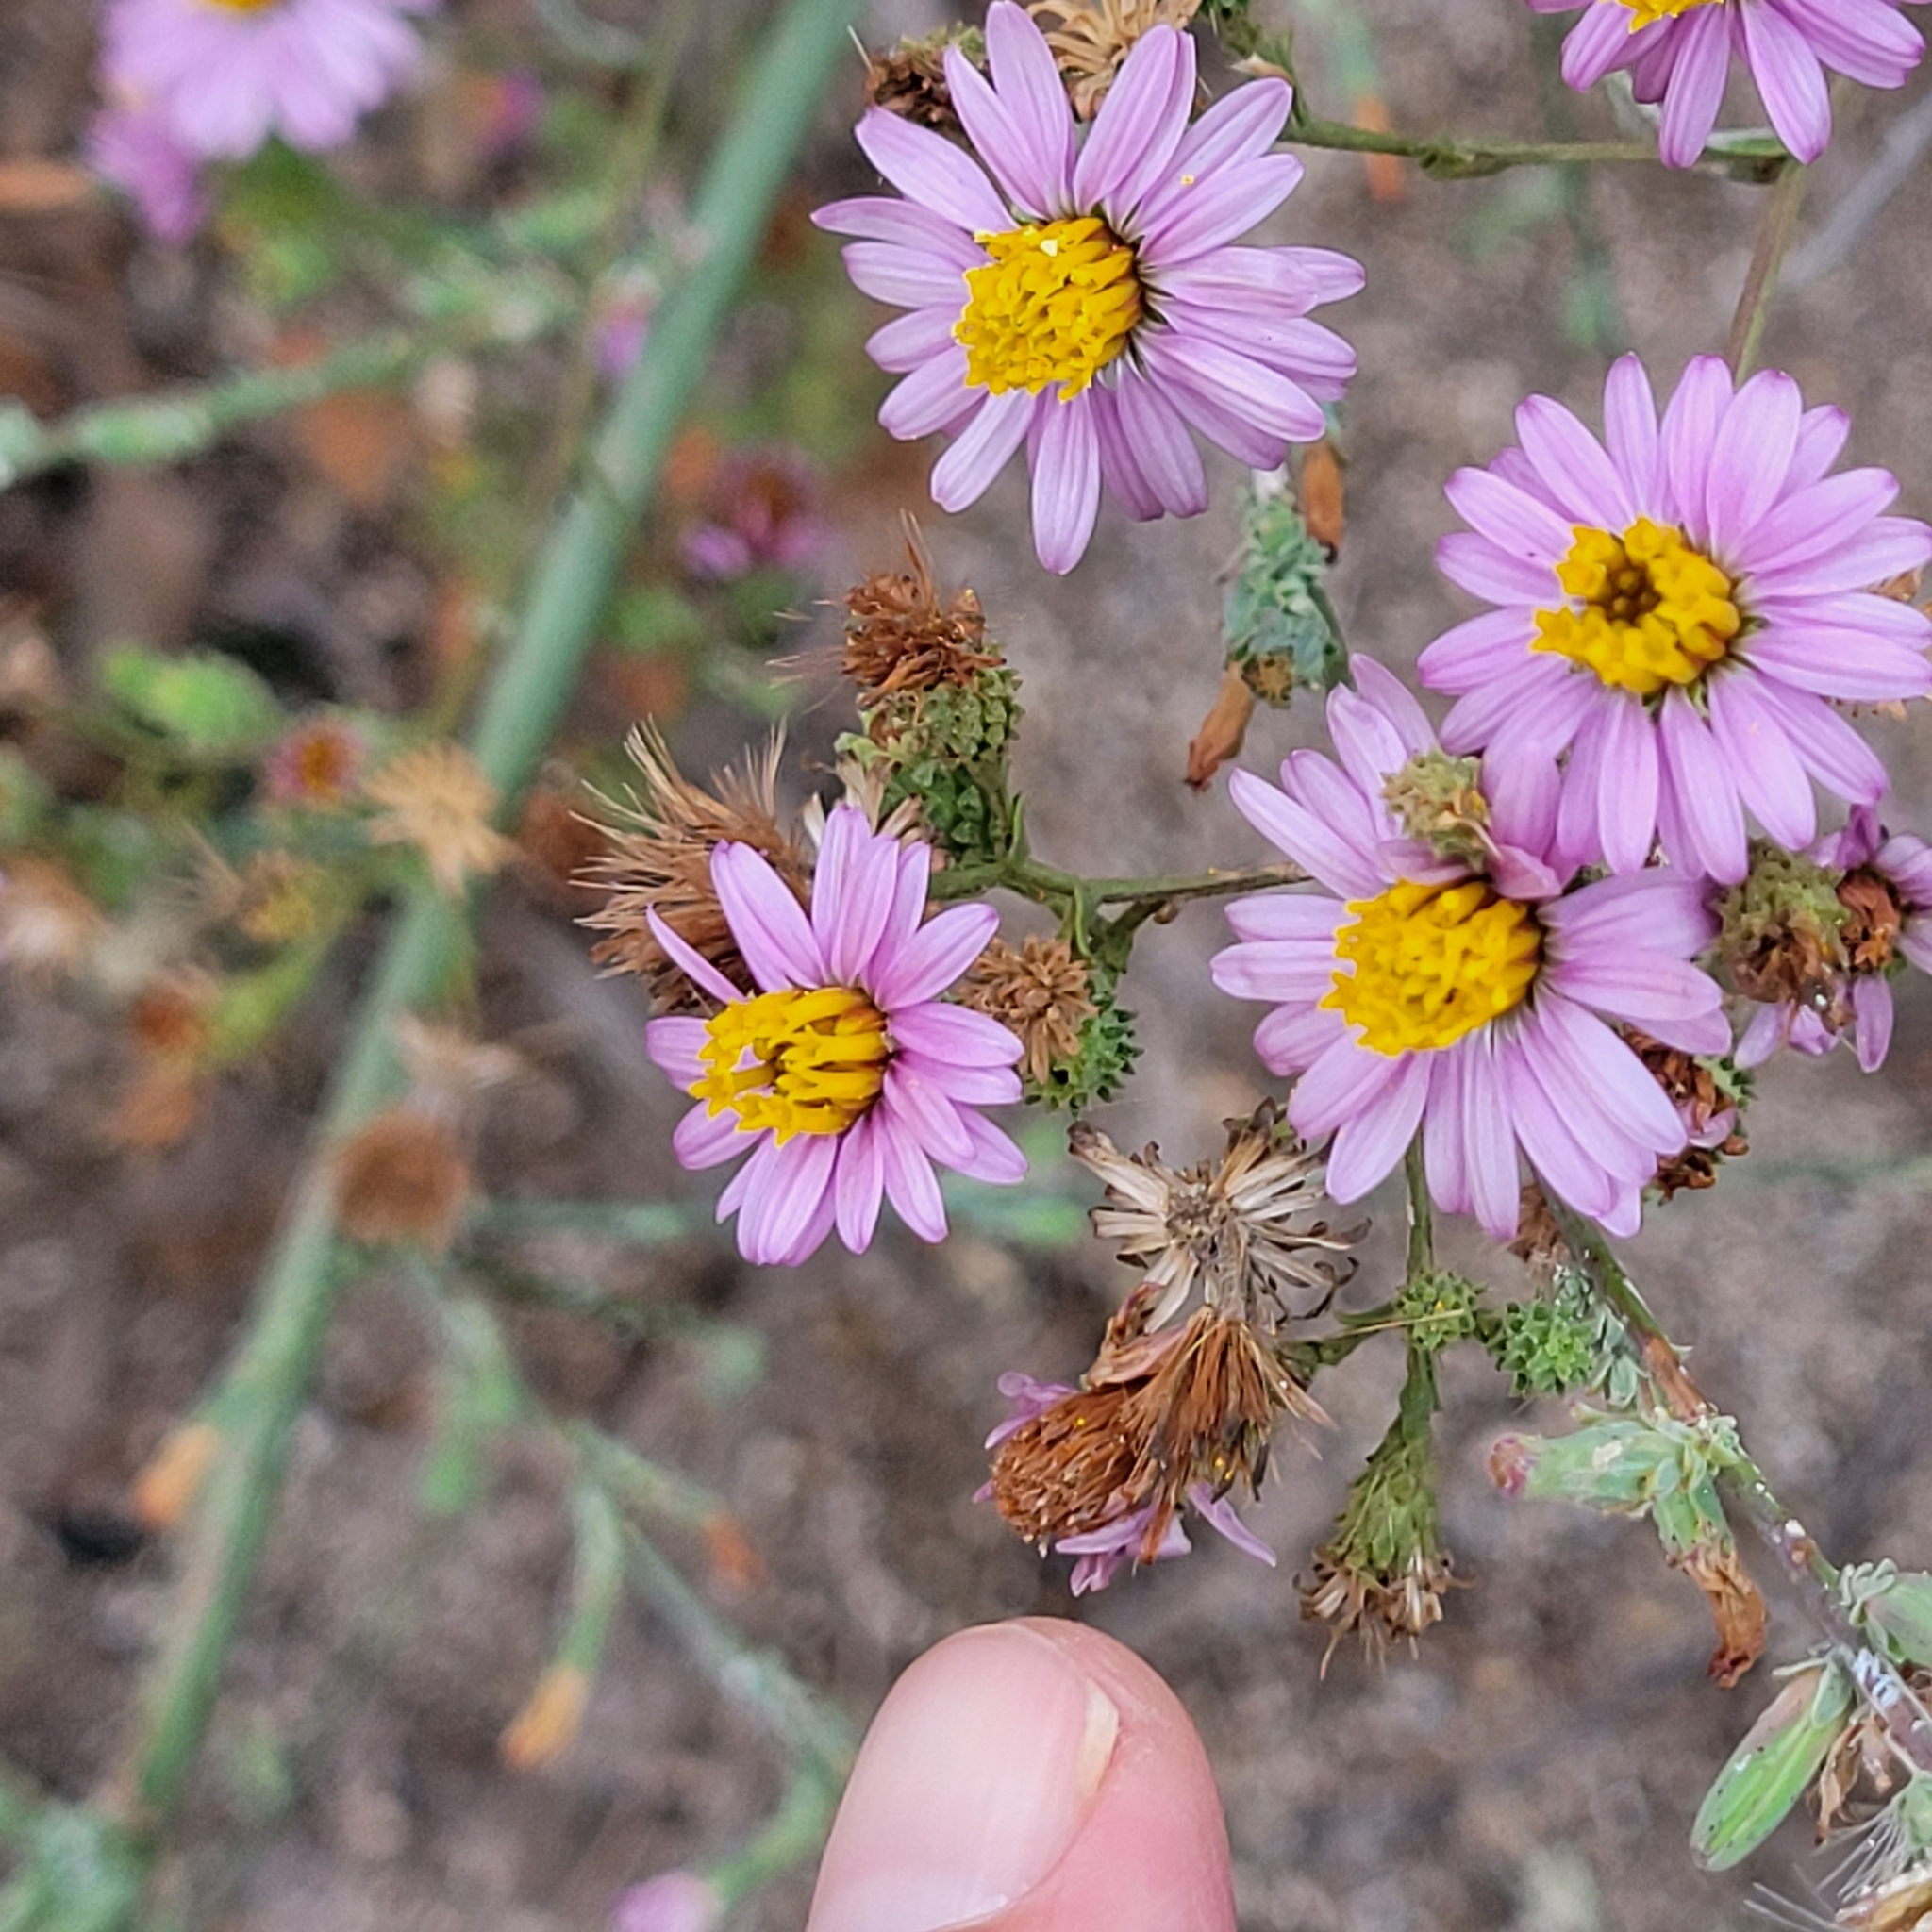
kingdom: Plantae
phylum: Tracheophyta
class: Magnoliopsida
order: Asterales
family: Asteraceae
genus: Corethrogyne
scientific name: Corethrogyne filaginifolia
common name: Sand-aster
